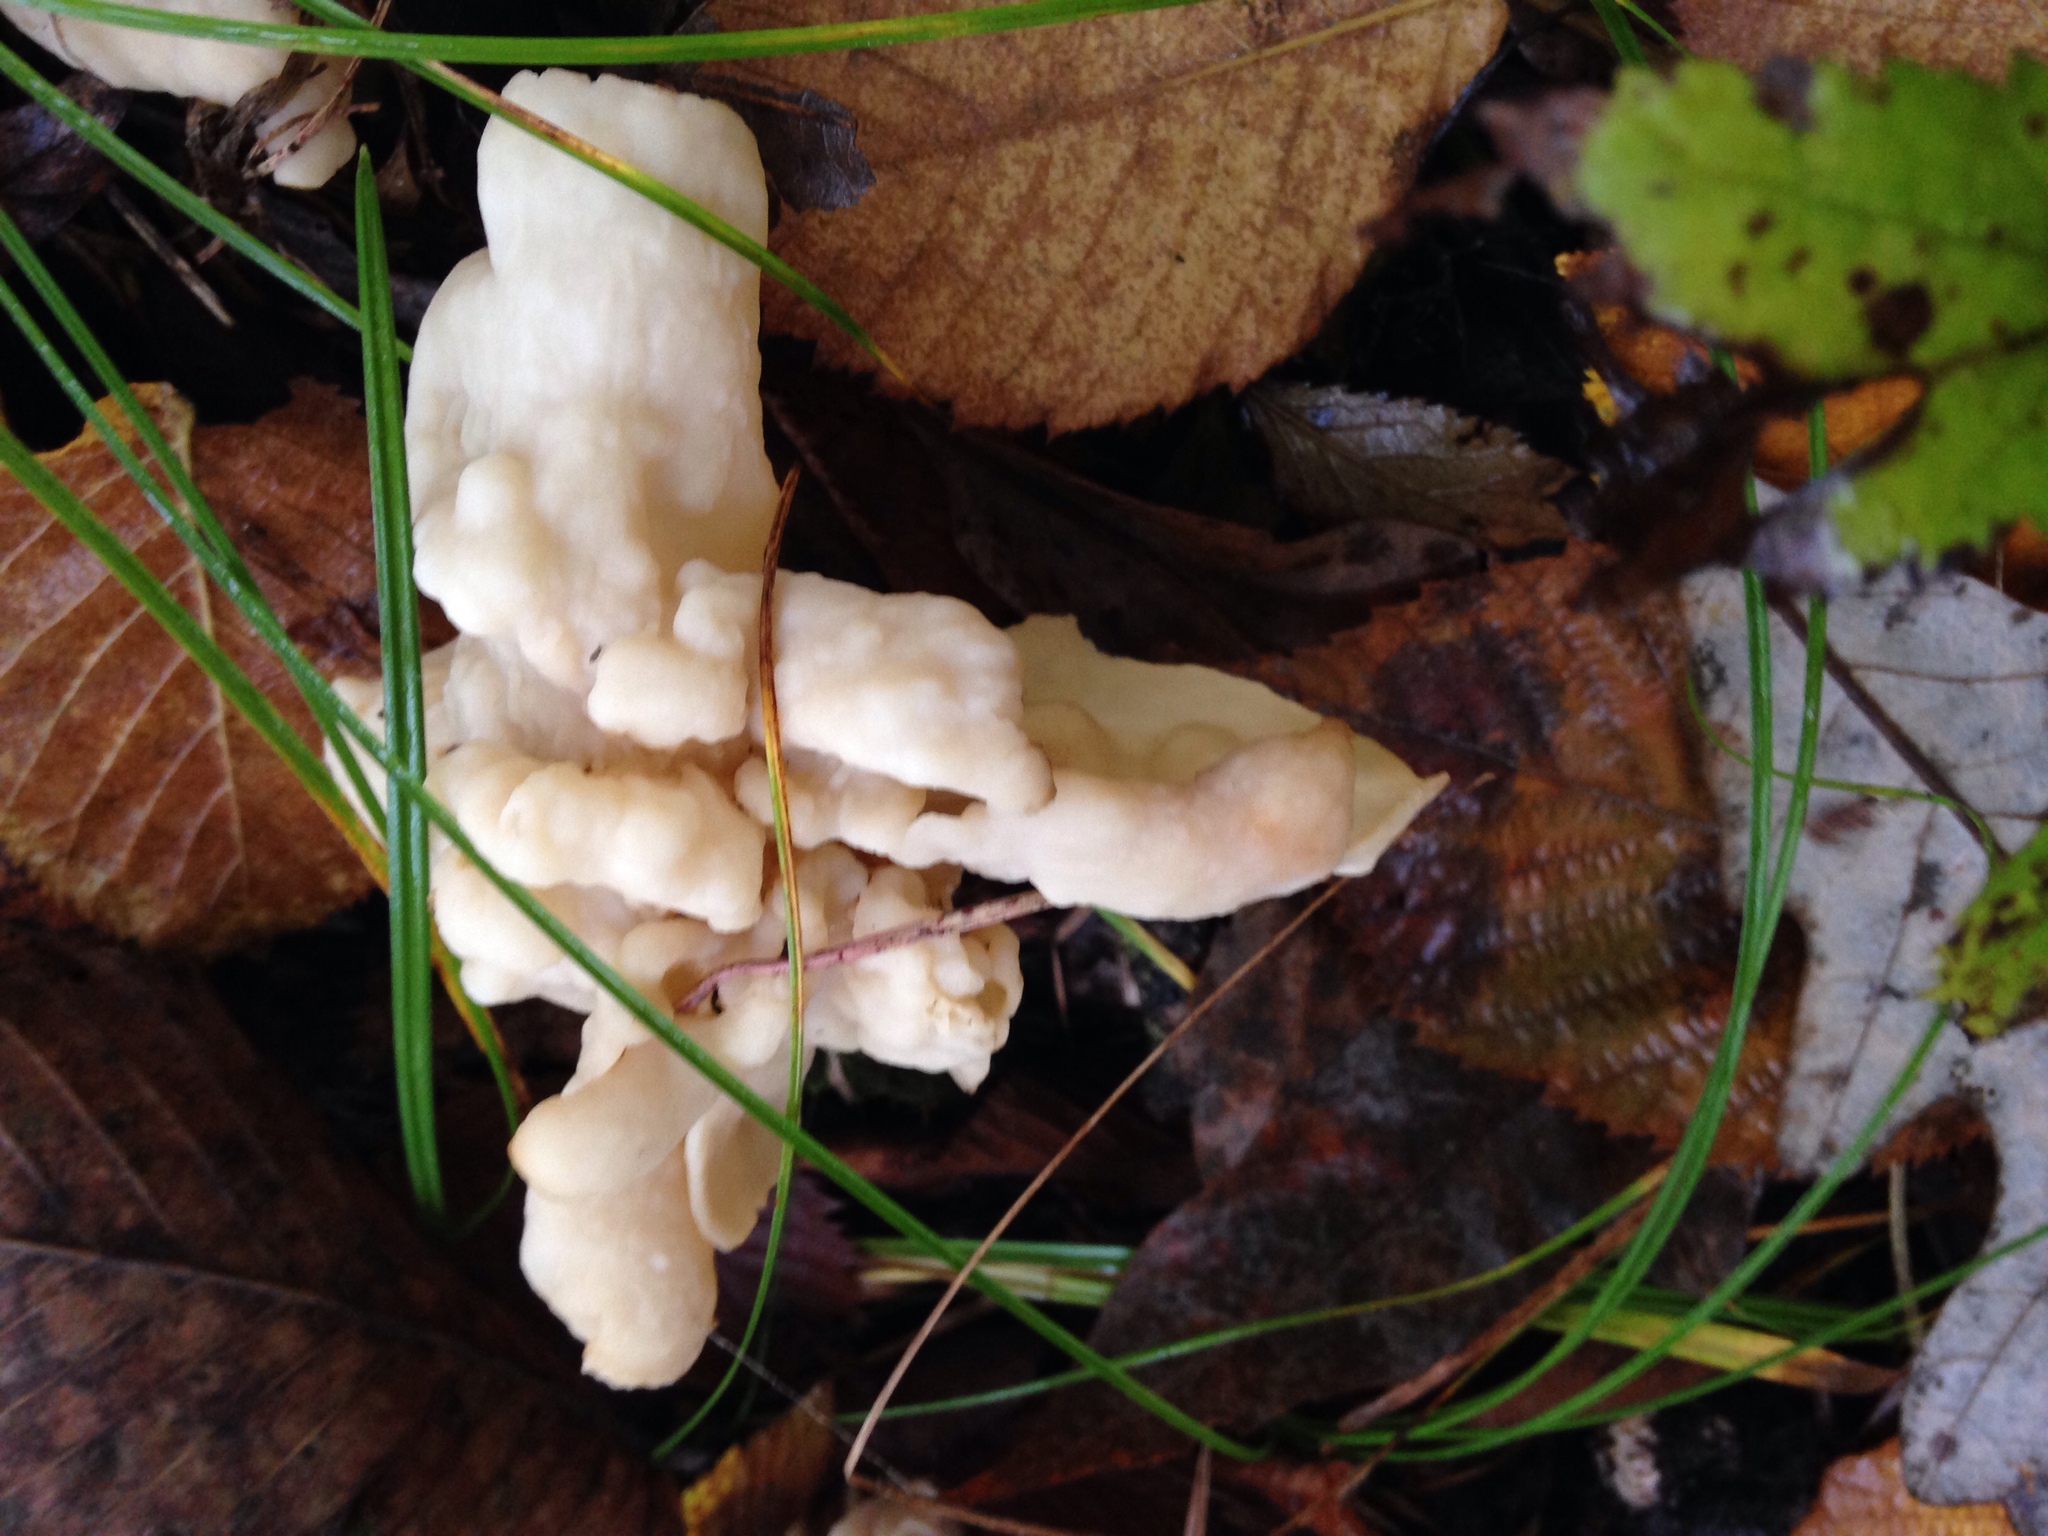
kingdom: Fungi
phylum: Basidiomycota
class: Agaricomycetes
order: Sebacinales
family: Sebacinaceae
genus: Sebacina
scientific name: Sebacina sparassoidea
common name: White coral jelly fungus
